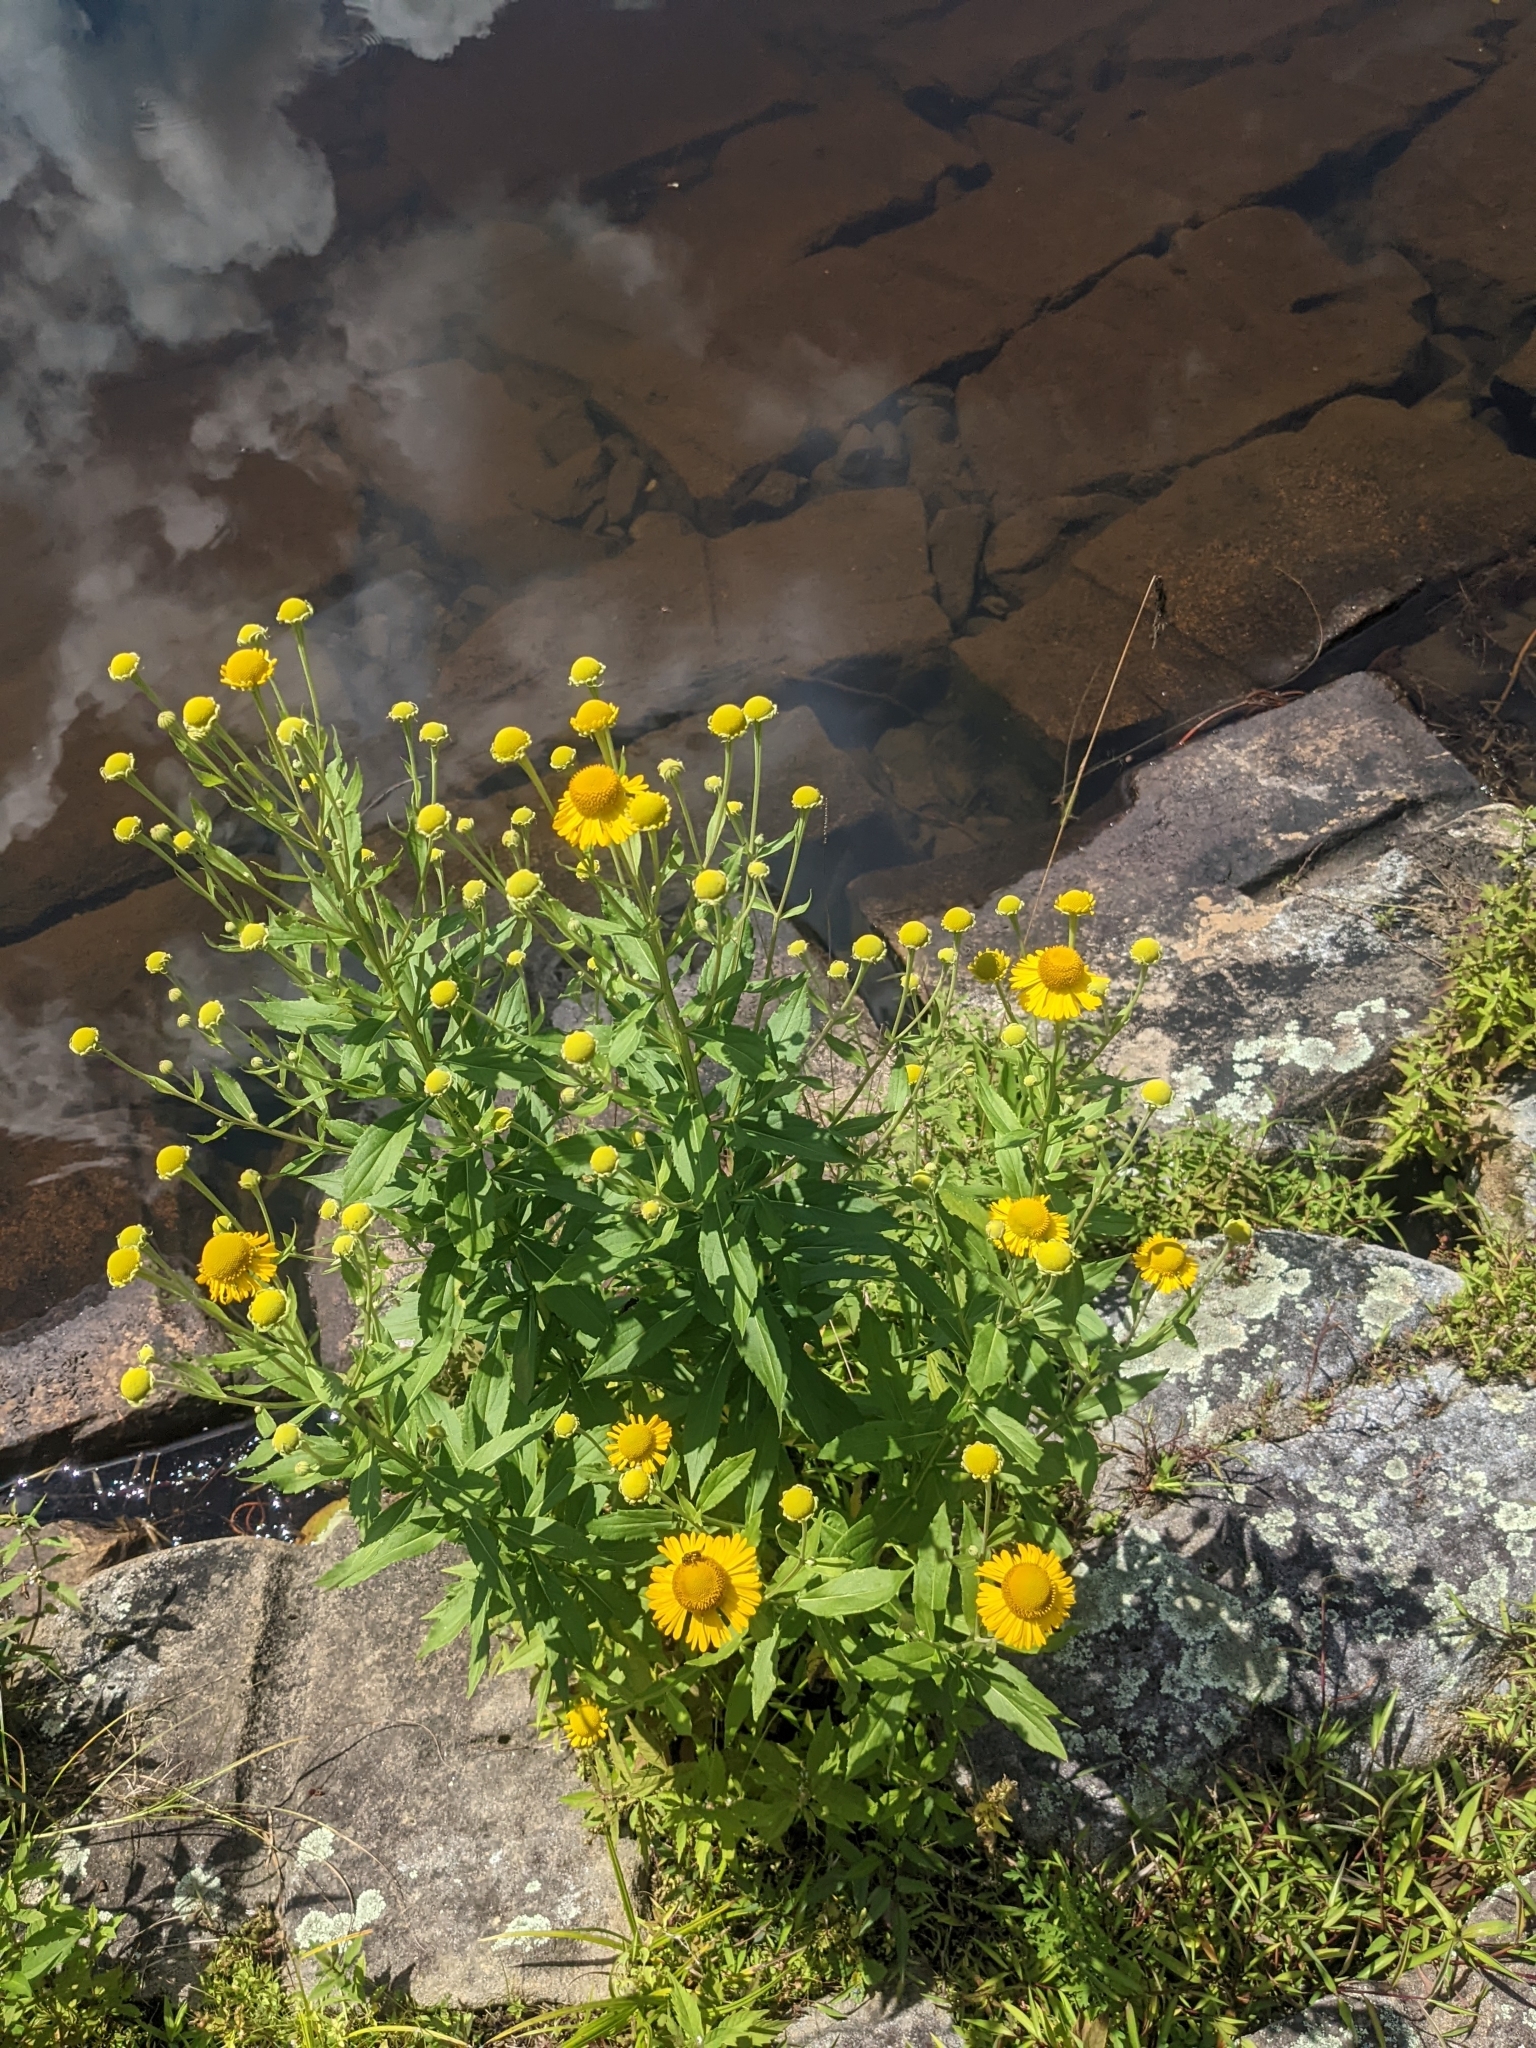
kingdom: Plantae
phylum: Tracheophyta
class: Magnoliopsida
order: Asterales
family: Asteraceae
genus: Helenium
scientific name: Helenium autumnale
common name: Sneezeweed
